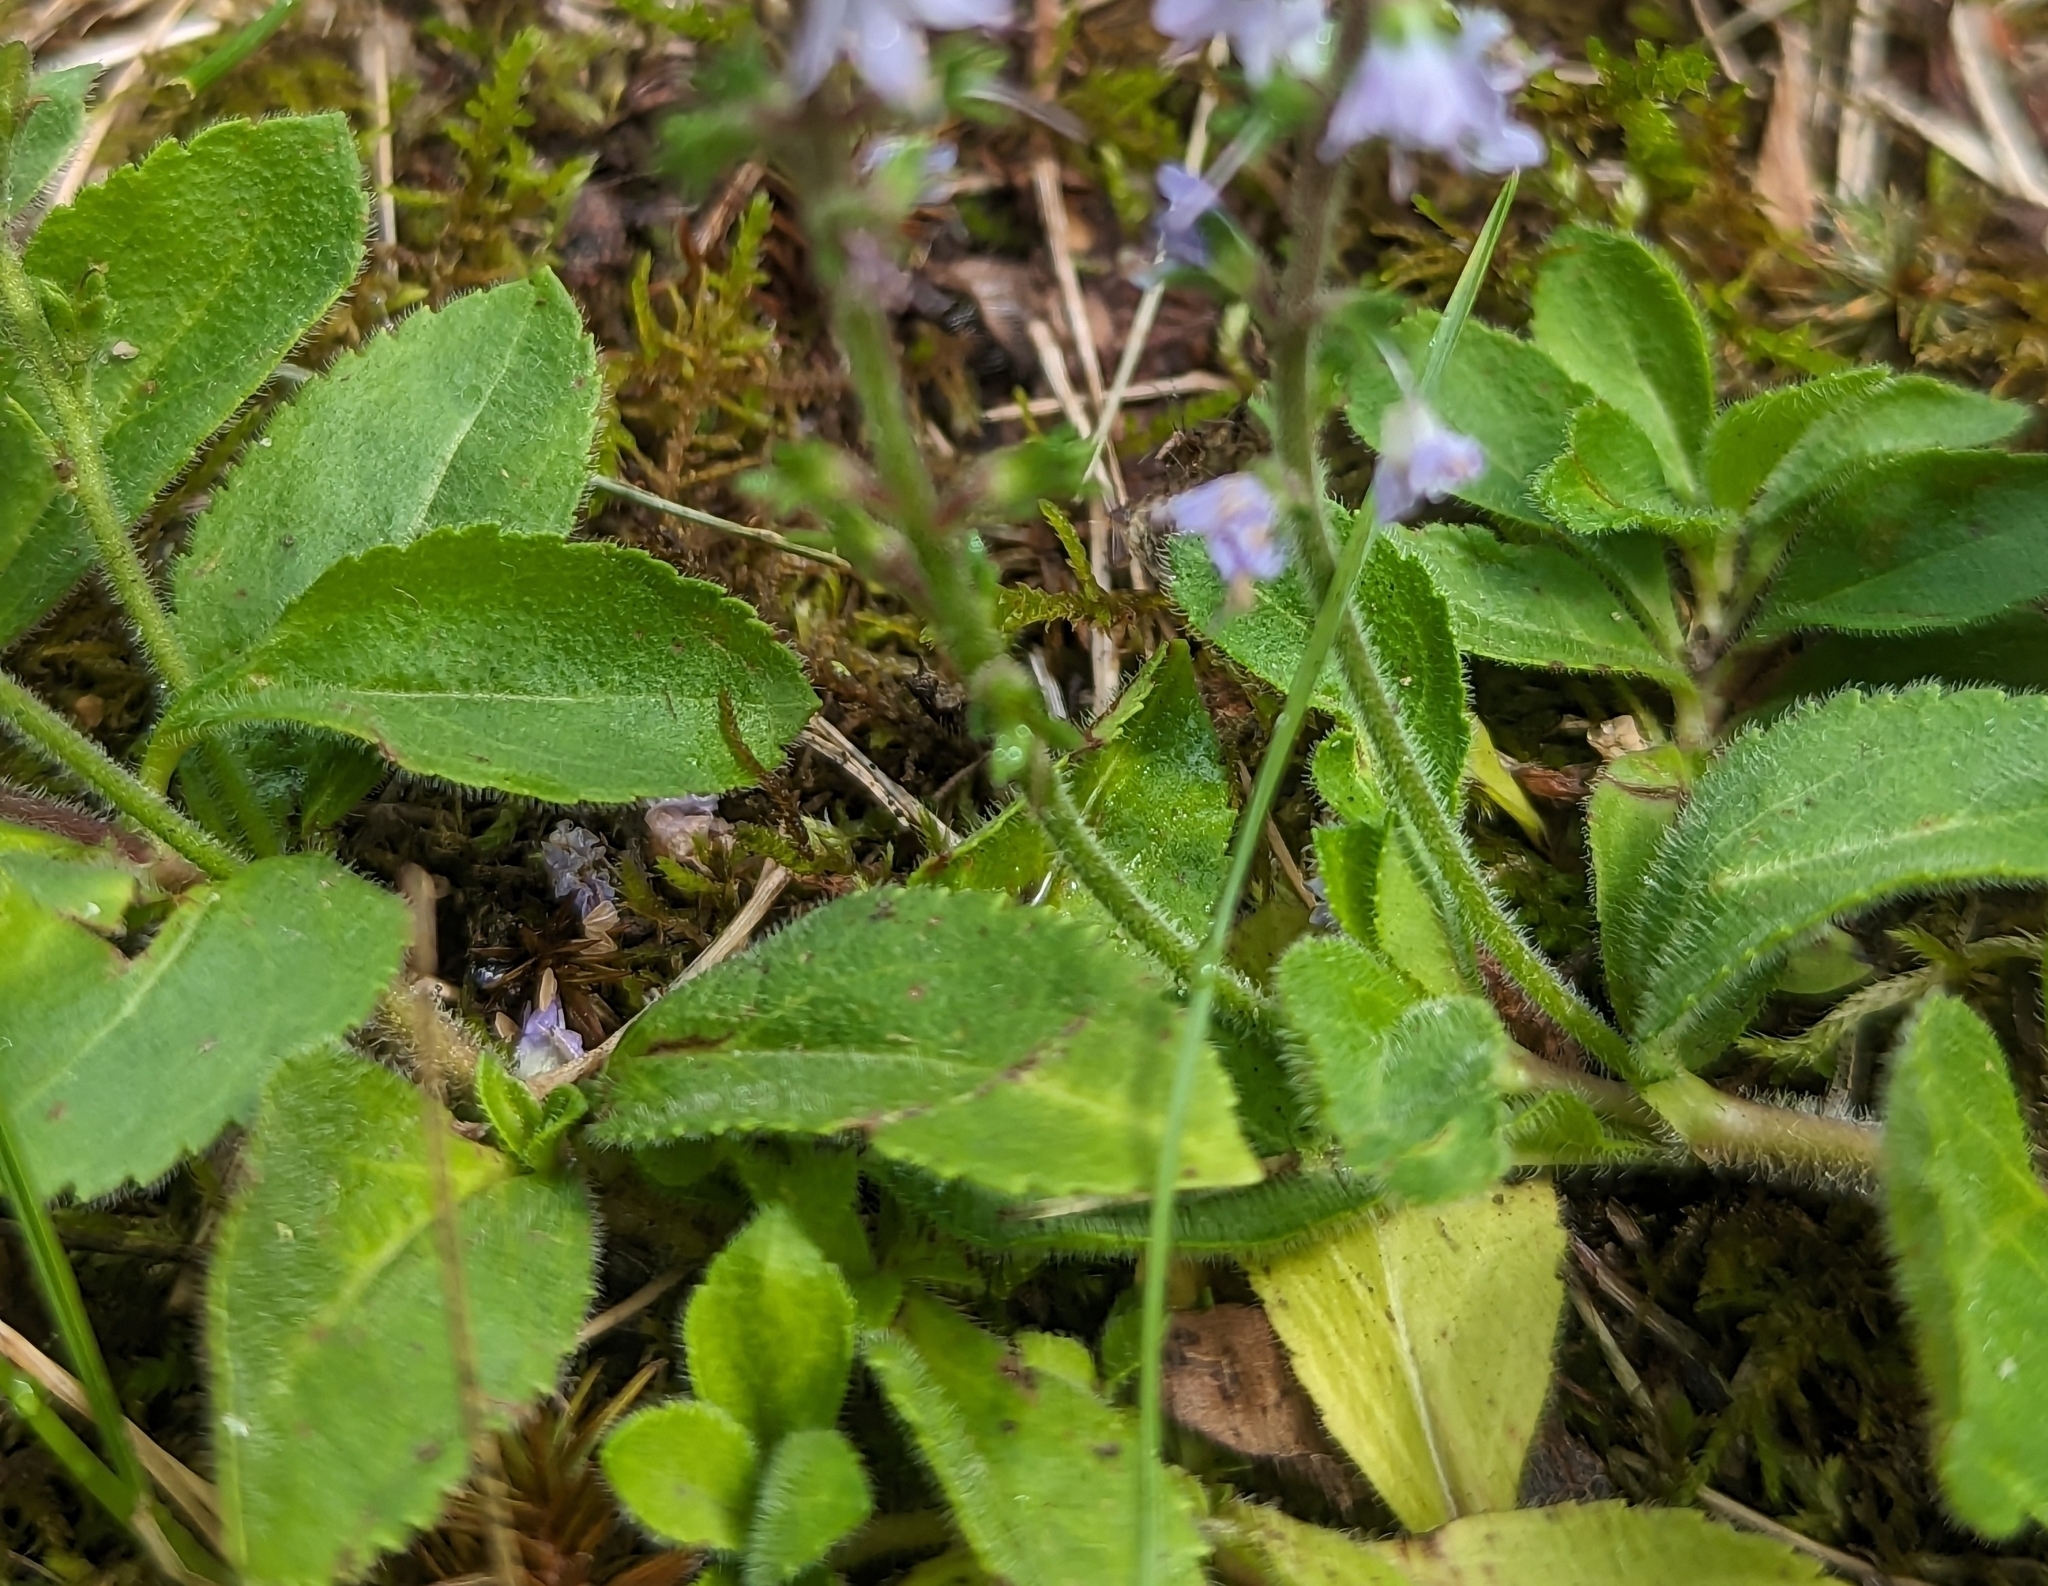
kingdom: Plantae
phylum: Tracheophyta
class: Magnoliopsida
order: Lamiales
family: Plantaginaceae
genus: Veronica
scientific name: Veronica officinalis
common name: Common speedwell
